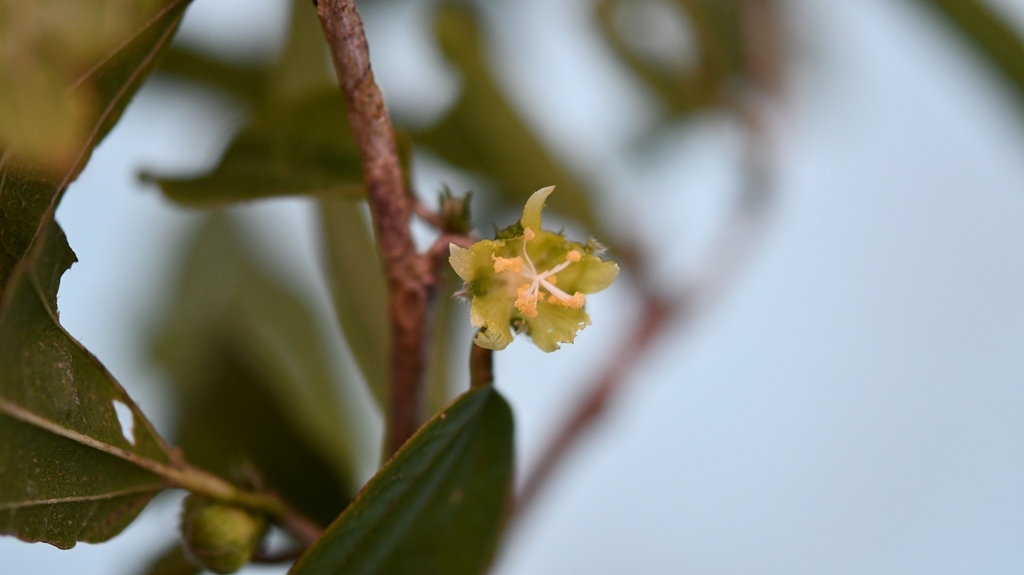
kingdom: Plantae
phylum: Tracheophyta
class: Magnoliopsida
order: Malvales
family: Malvaceae
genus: Hibiscus
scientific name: Hibiscus purpusii
